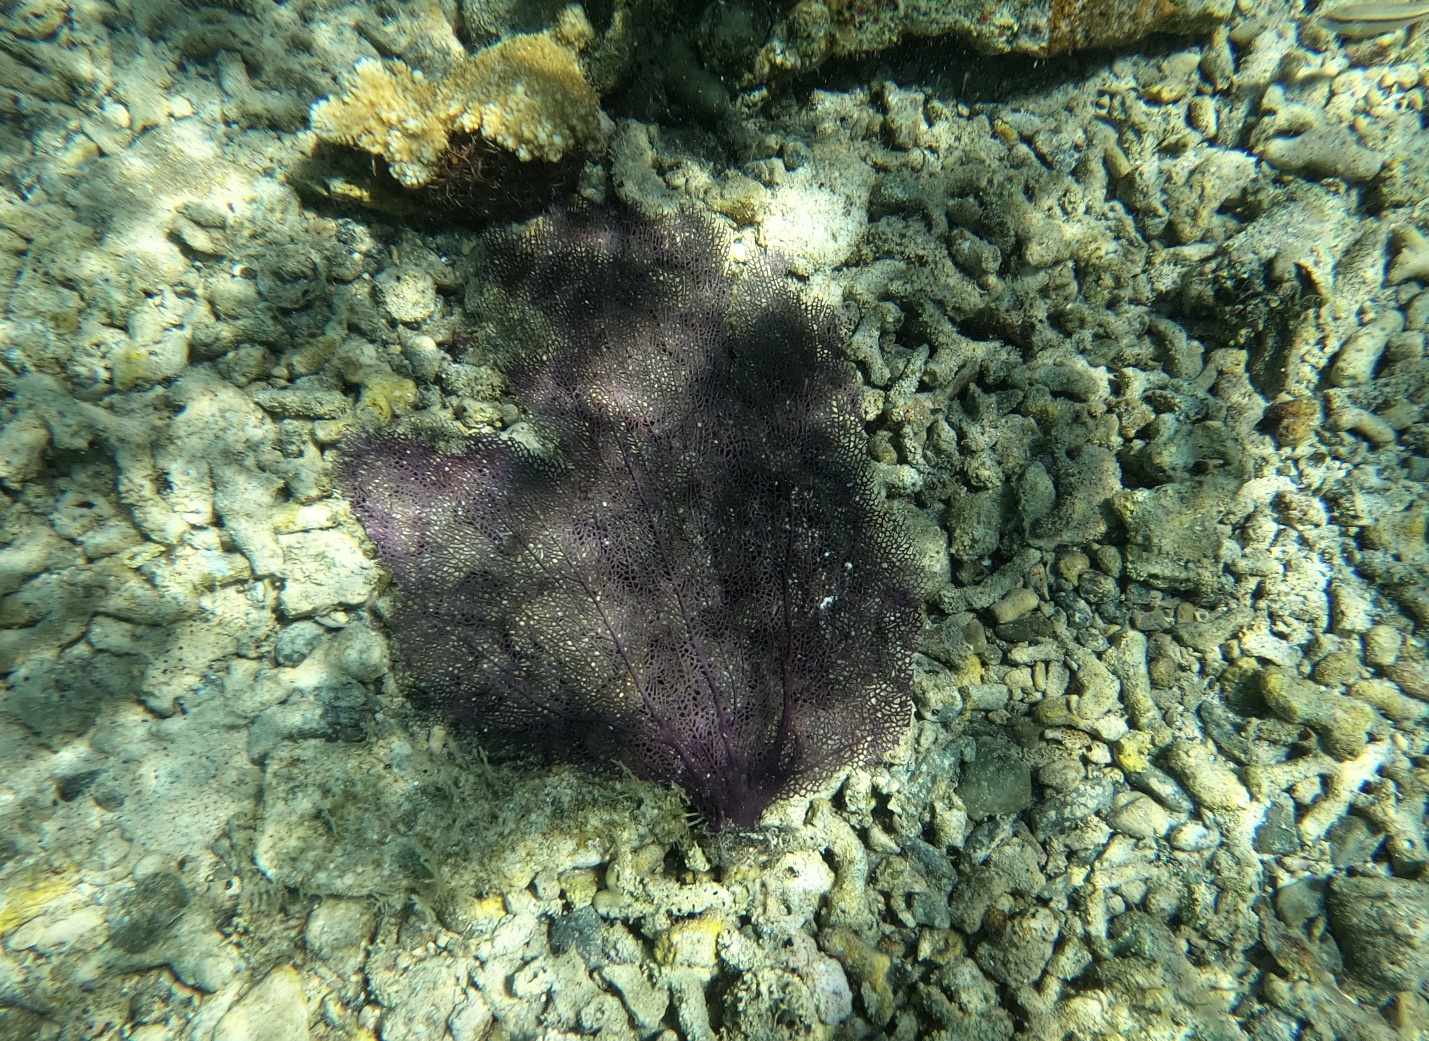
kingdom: Animalia
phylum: Cnidaria
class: Anthozoa
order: Malacalcyonacea
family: Gorgoniidae
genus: Gorgonia
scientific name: Gorgonia ventalina
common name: Common sea fan
